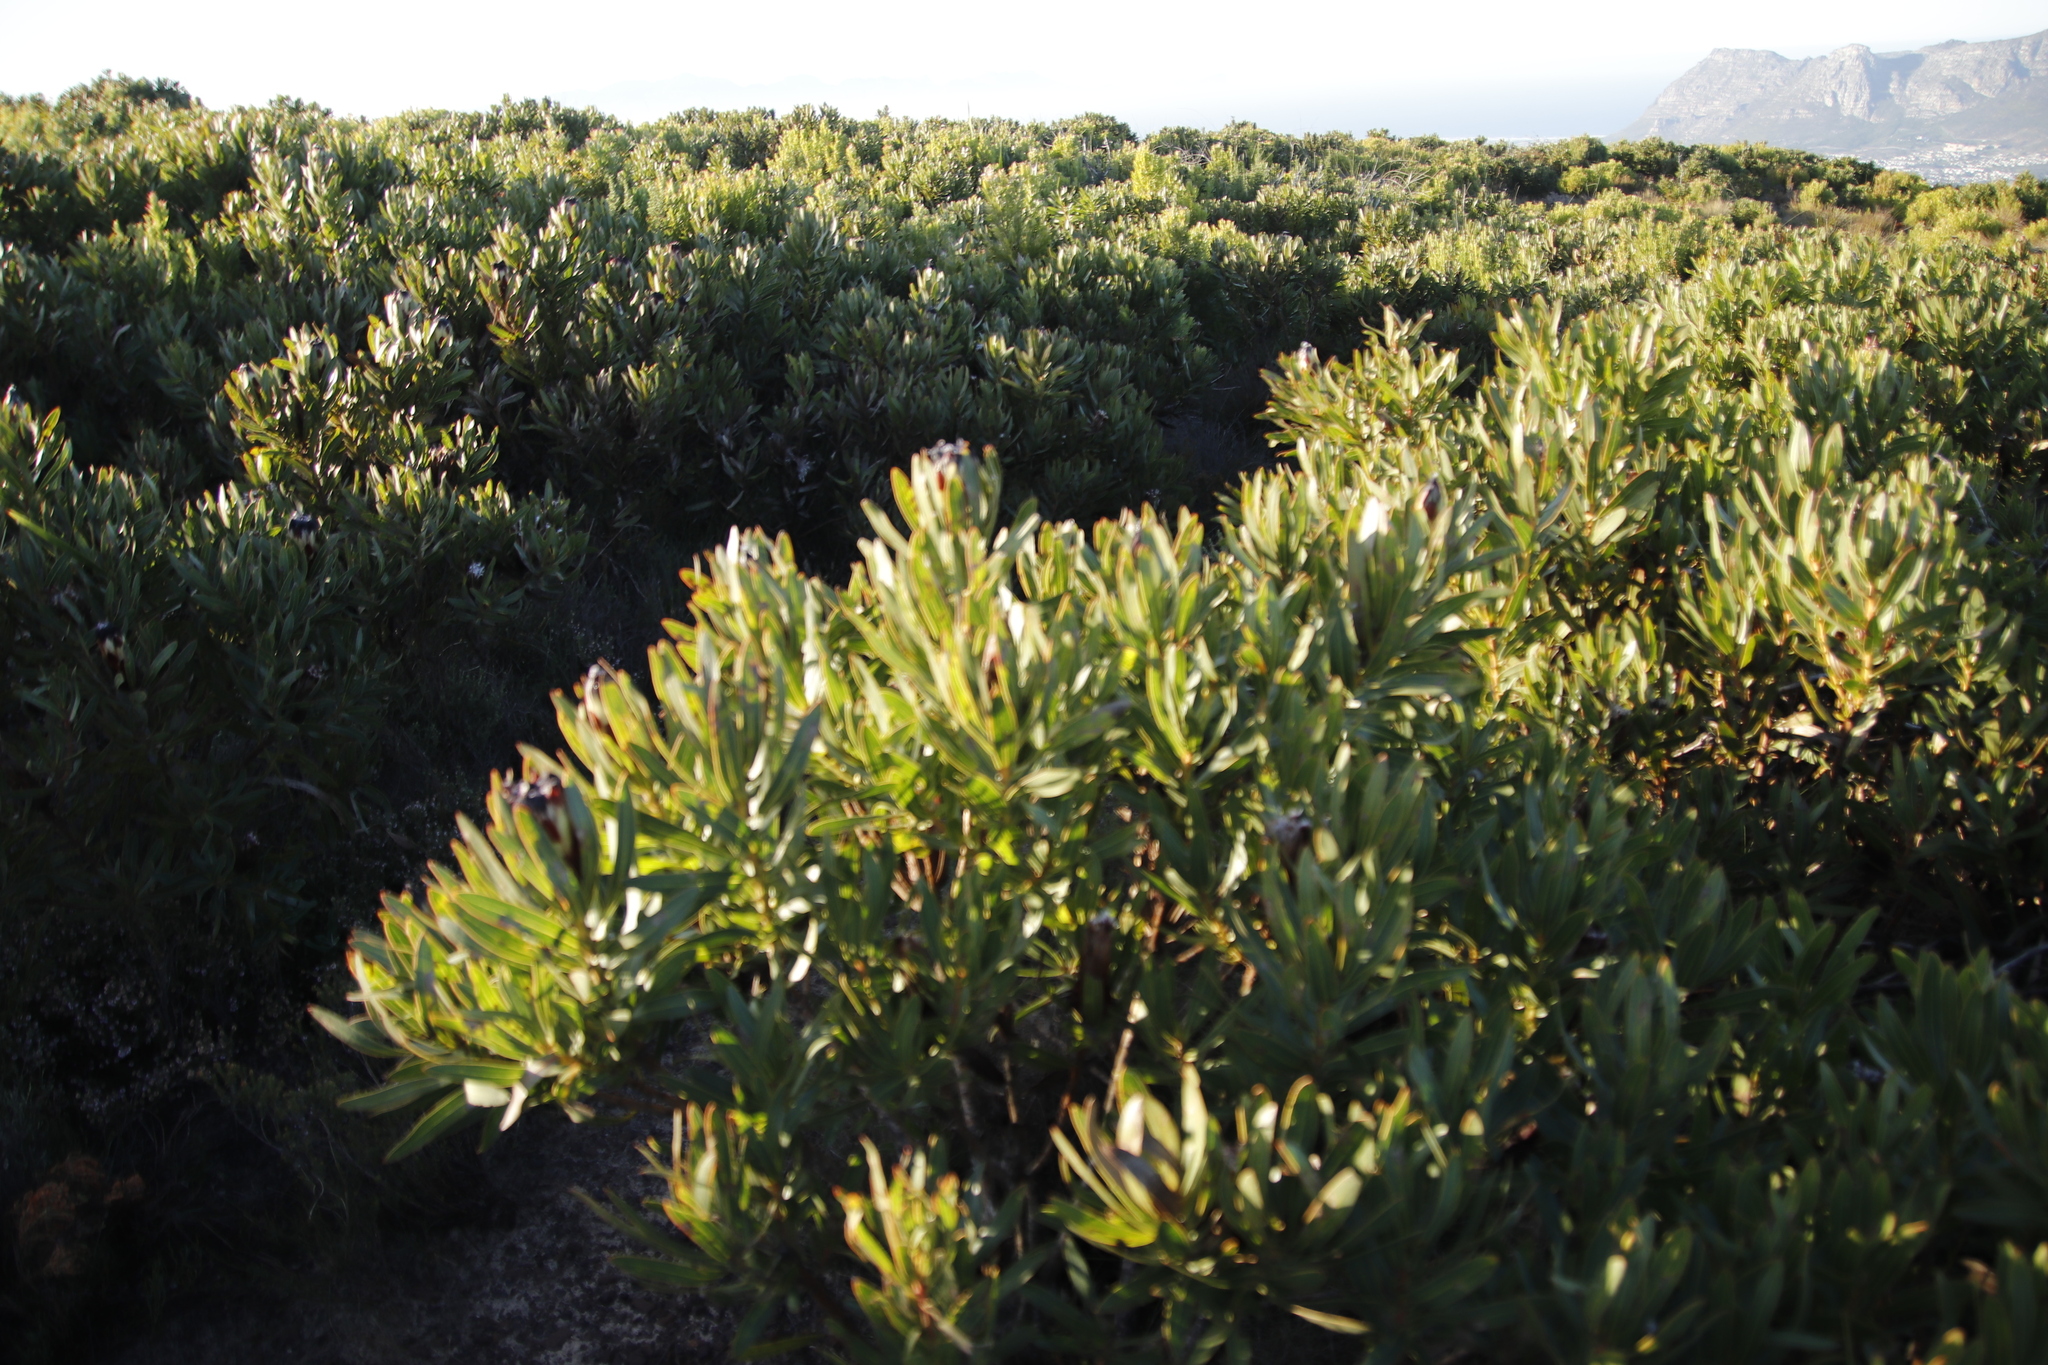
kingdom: Plantae
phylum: Tracheophyta
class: Magnoliopsida
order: Proteales
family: Proteaceae
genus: Protea
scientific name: Protea lepidocarpodendron
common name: Black-bearded protea
